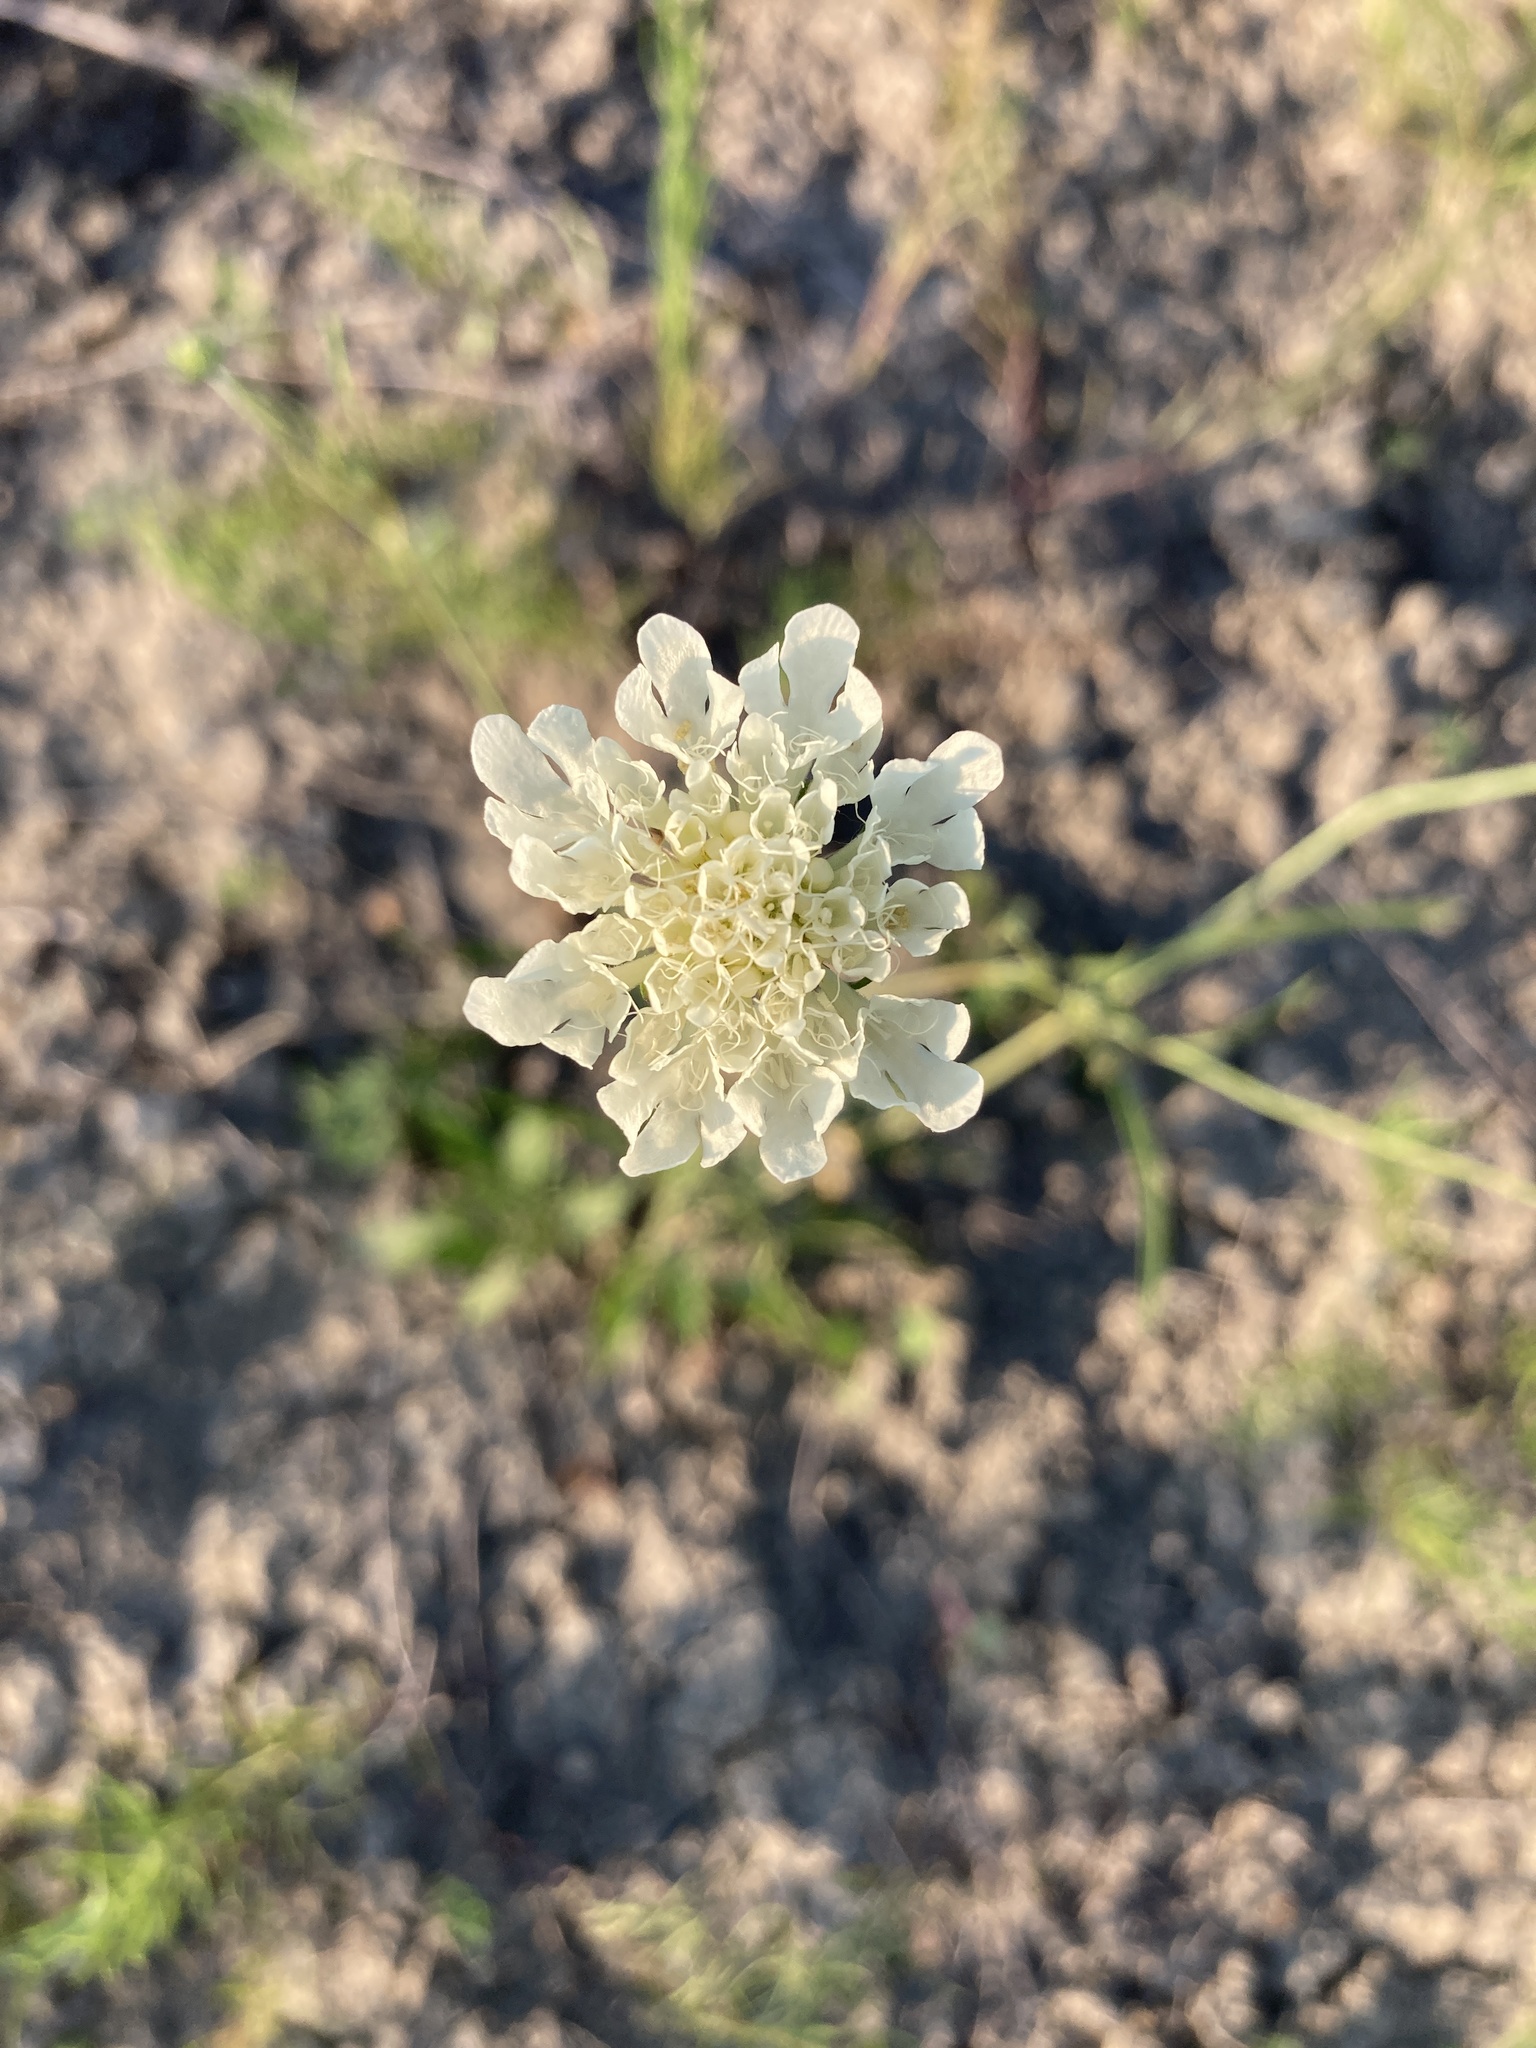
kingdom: Plantae
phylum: Tracheophyta
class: Magnoliopsida
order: Dipsacales
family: Caprifoliaceae
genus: Scabiosa
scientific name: Scabiosa ochroleuca
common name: Cream pincushions
